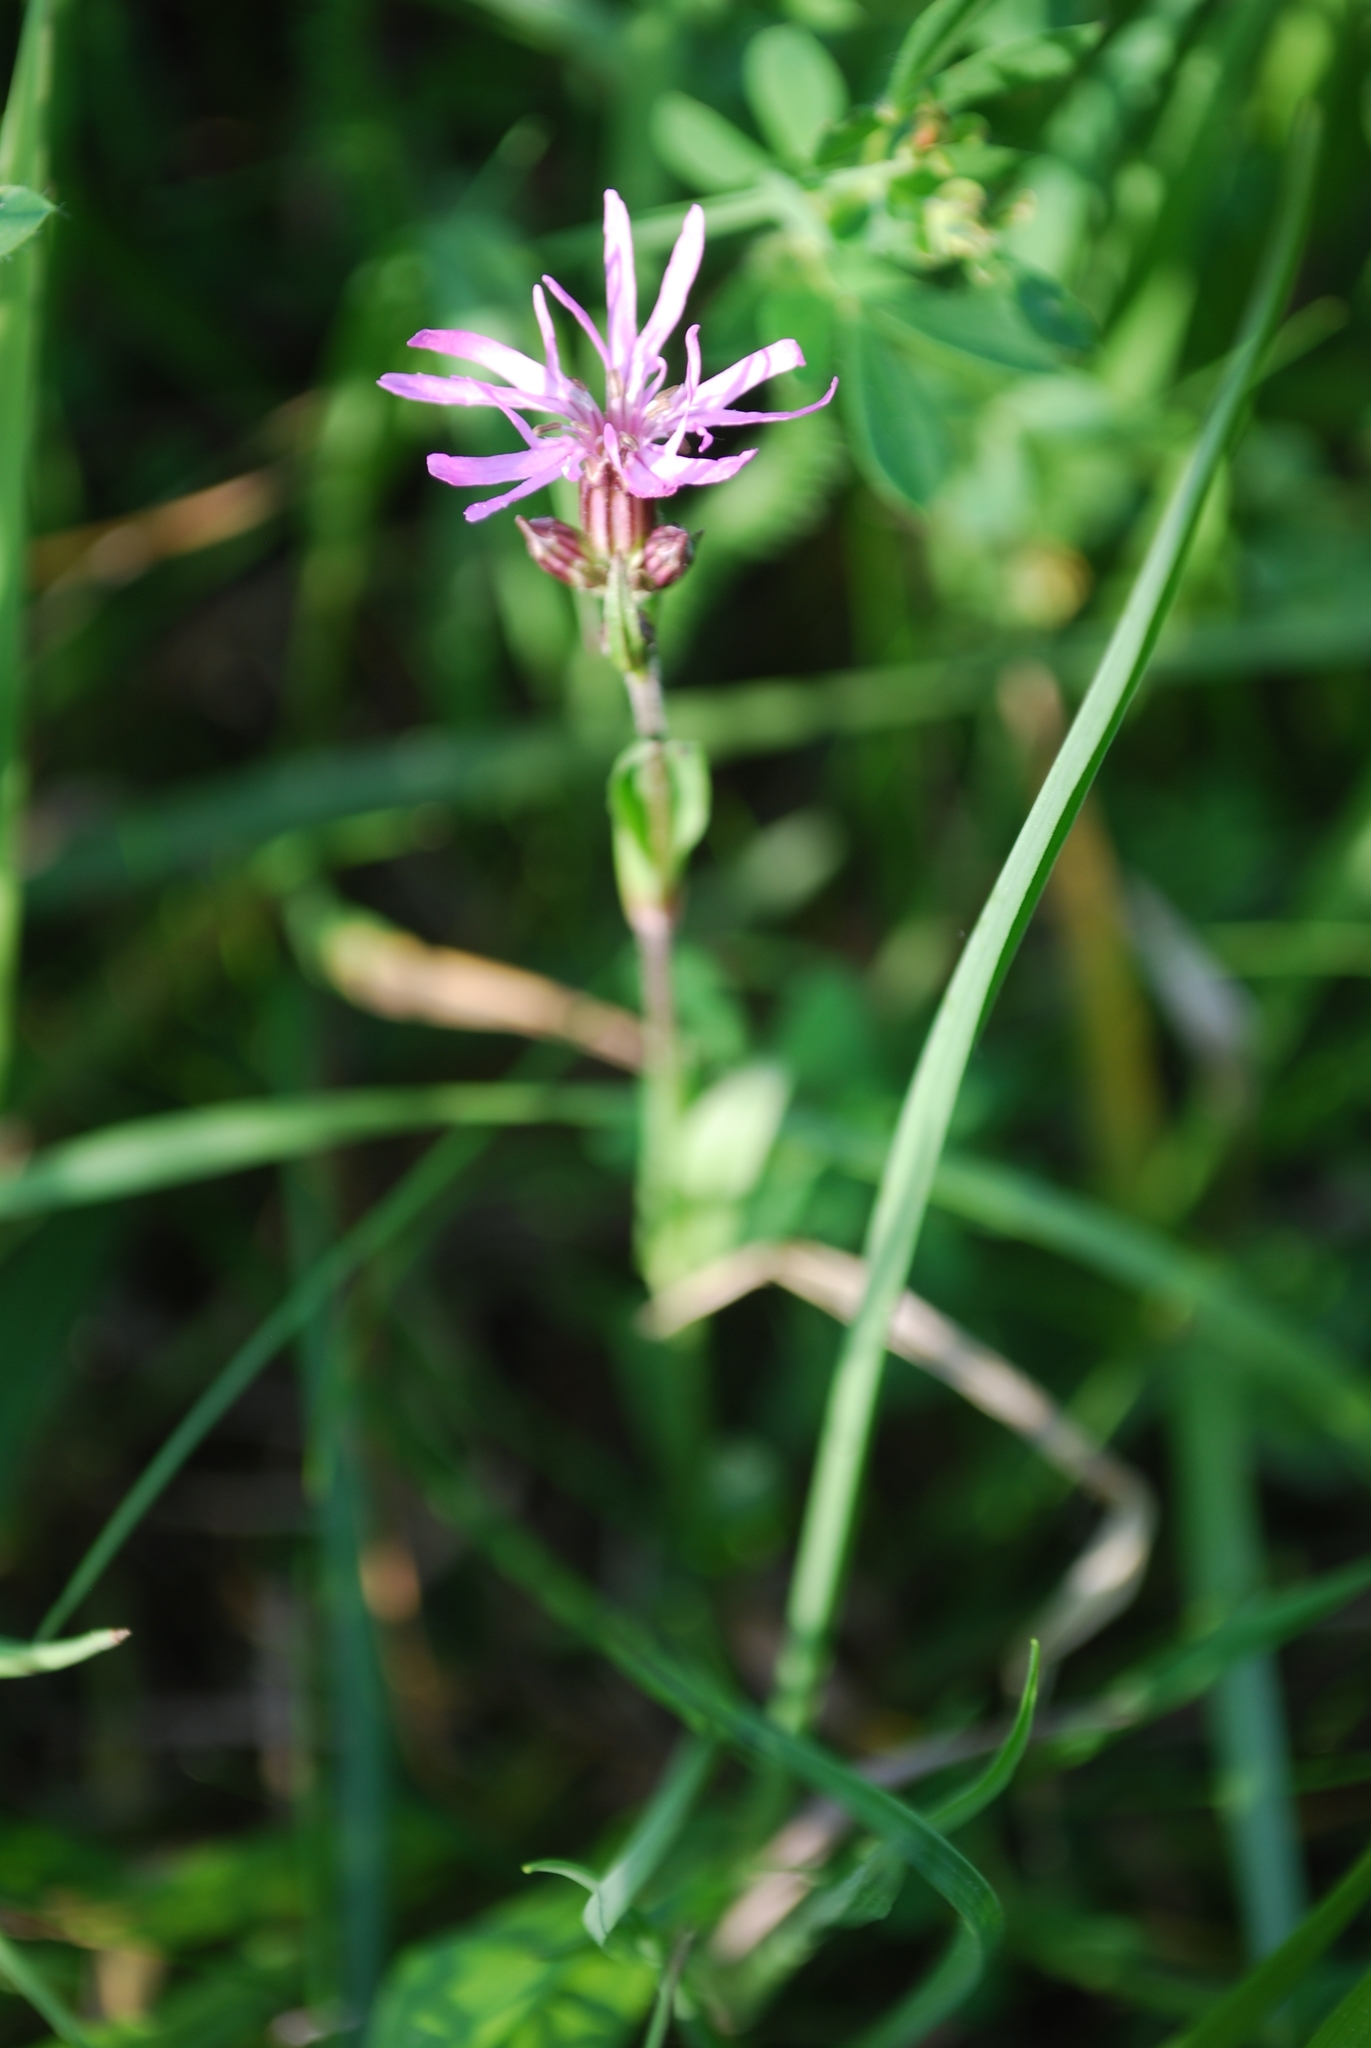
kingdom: Plantae
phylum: Tracheophyta
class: Magnoliopsida
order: Caryophyllales
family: Caryophyllaceae
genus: Silene
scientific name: Silene flos-cuculi
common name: Ragged-robin
